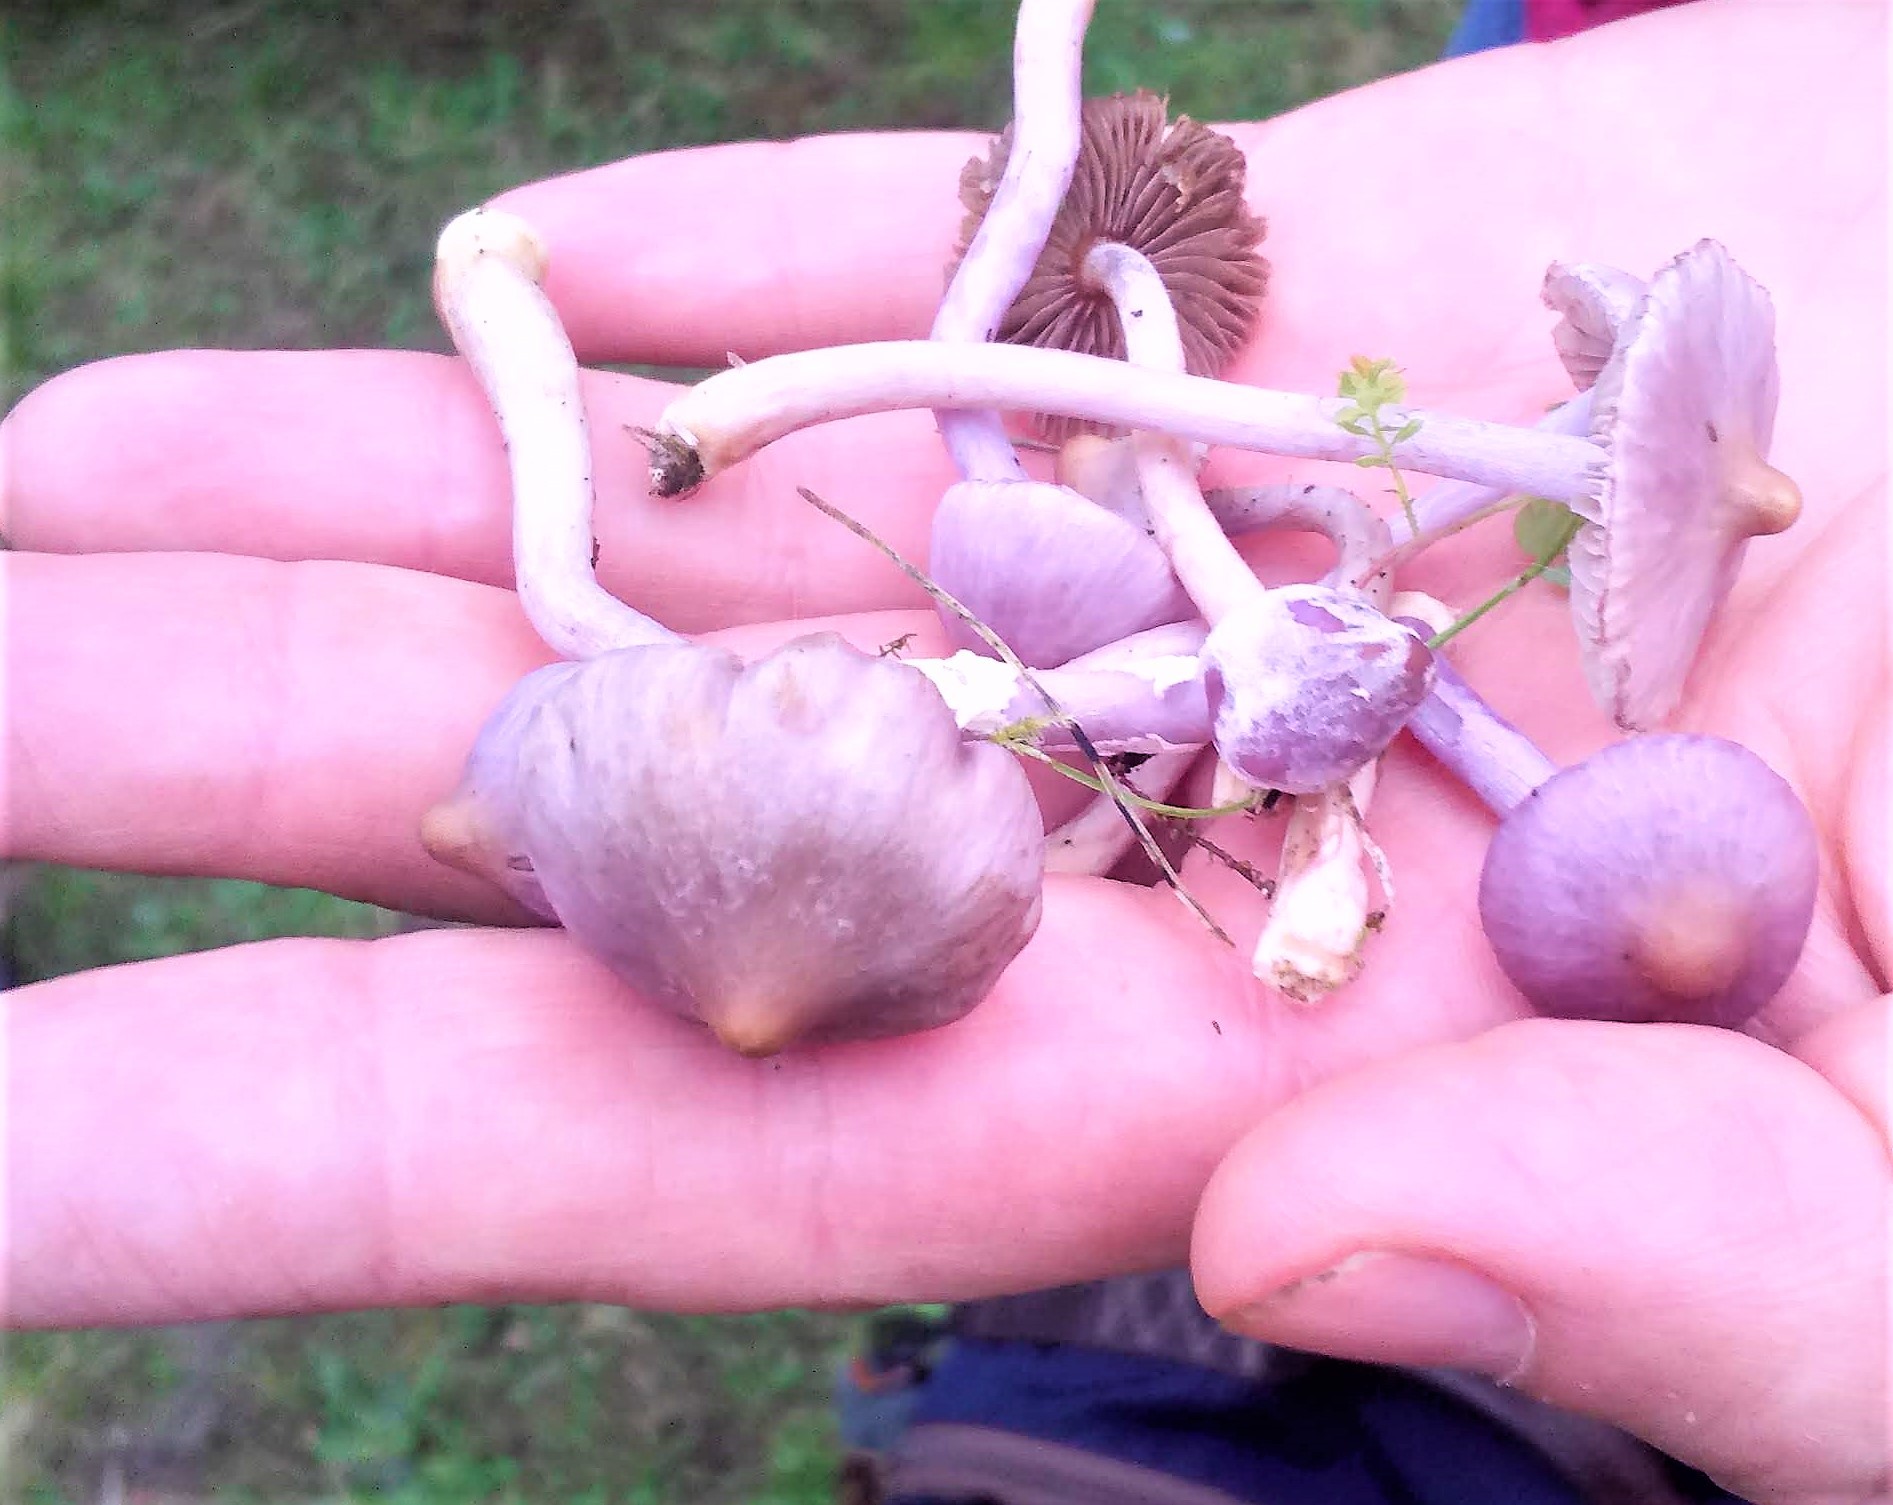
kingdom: Fungi
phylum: Basidiomycota
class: Agaricomycetes
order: Agaricales
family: Inocybaceae
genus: Inocybe
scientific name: Inocybe geophylla
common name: White fibrecap
